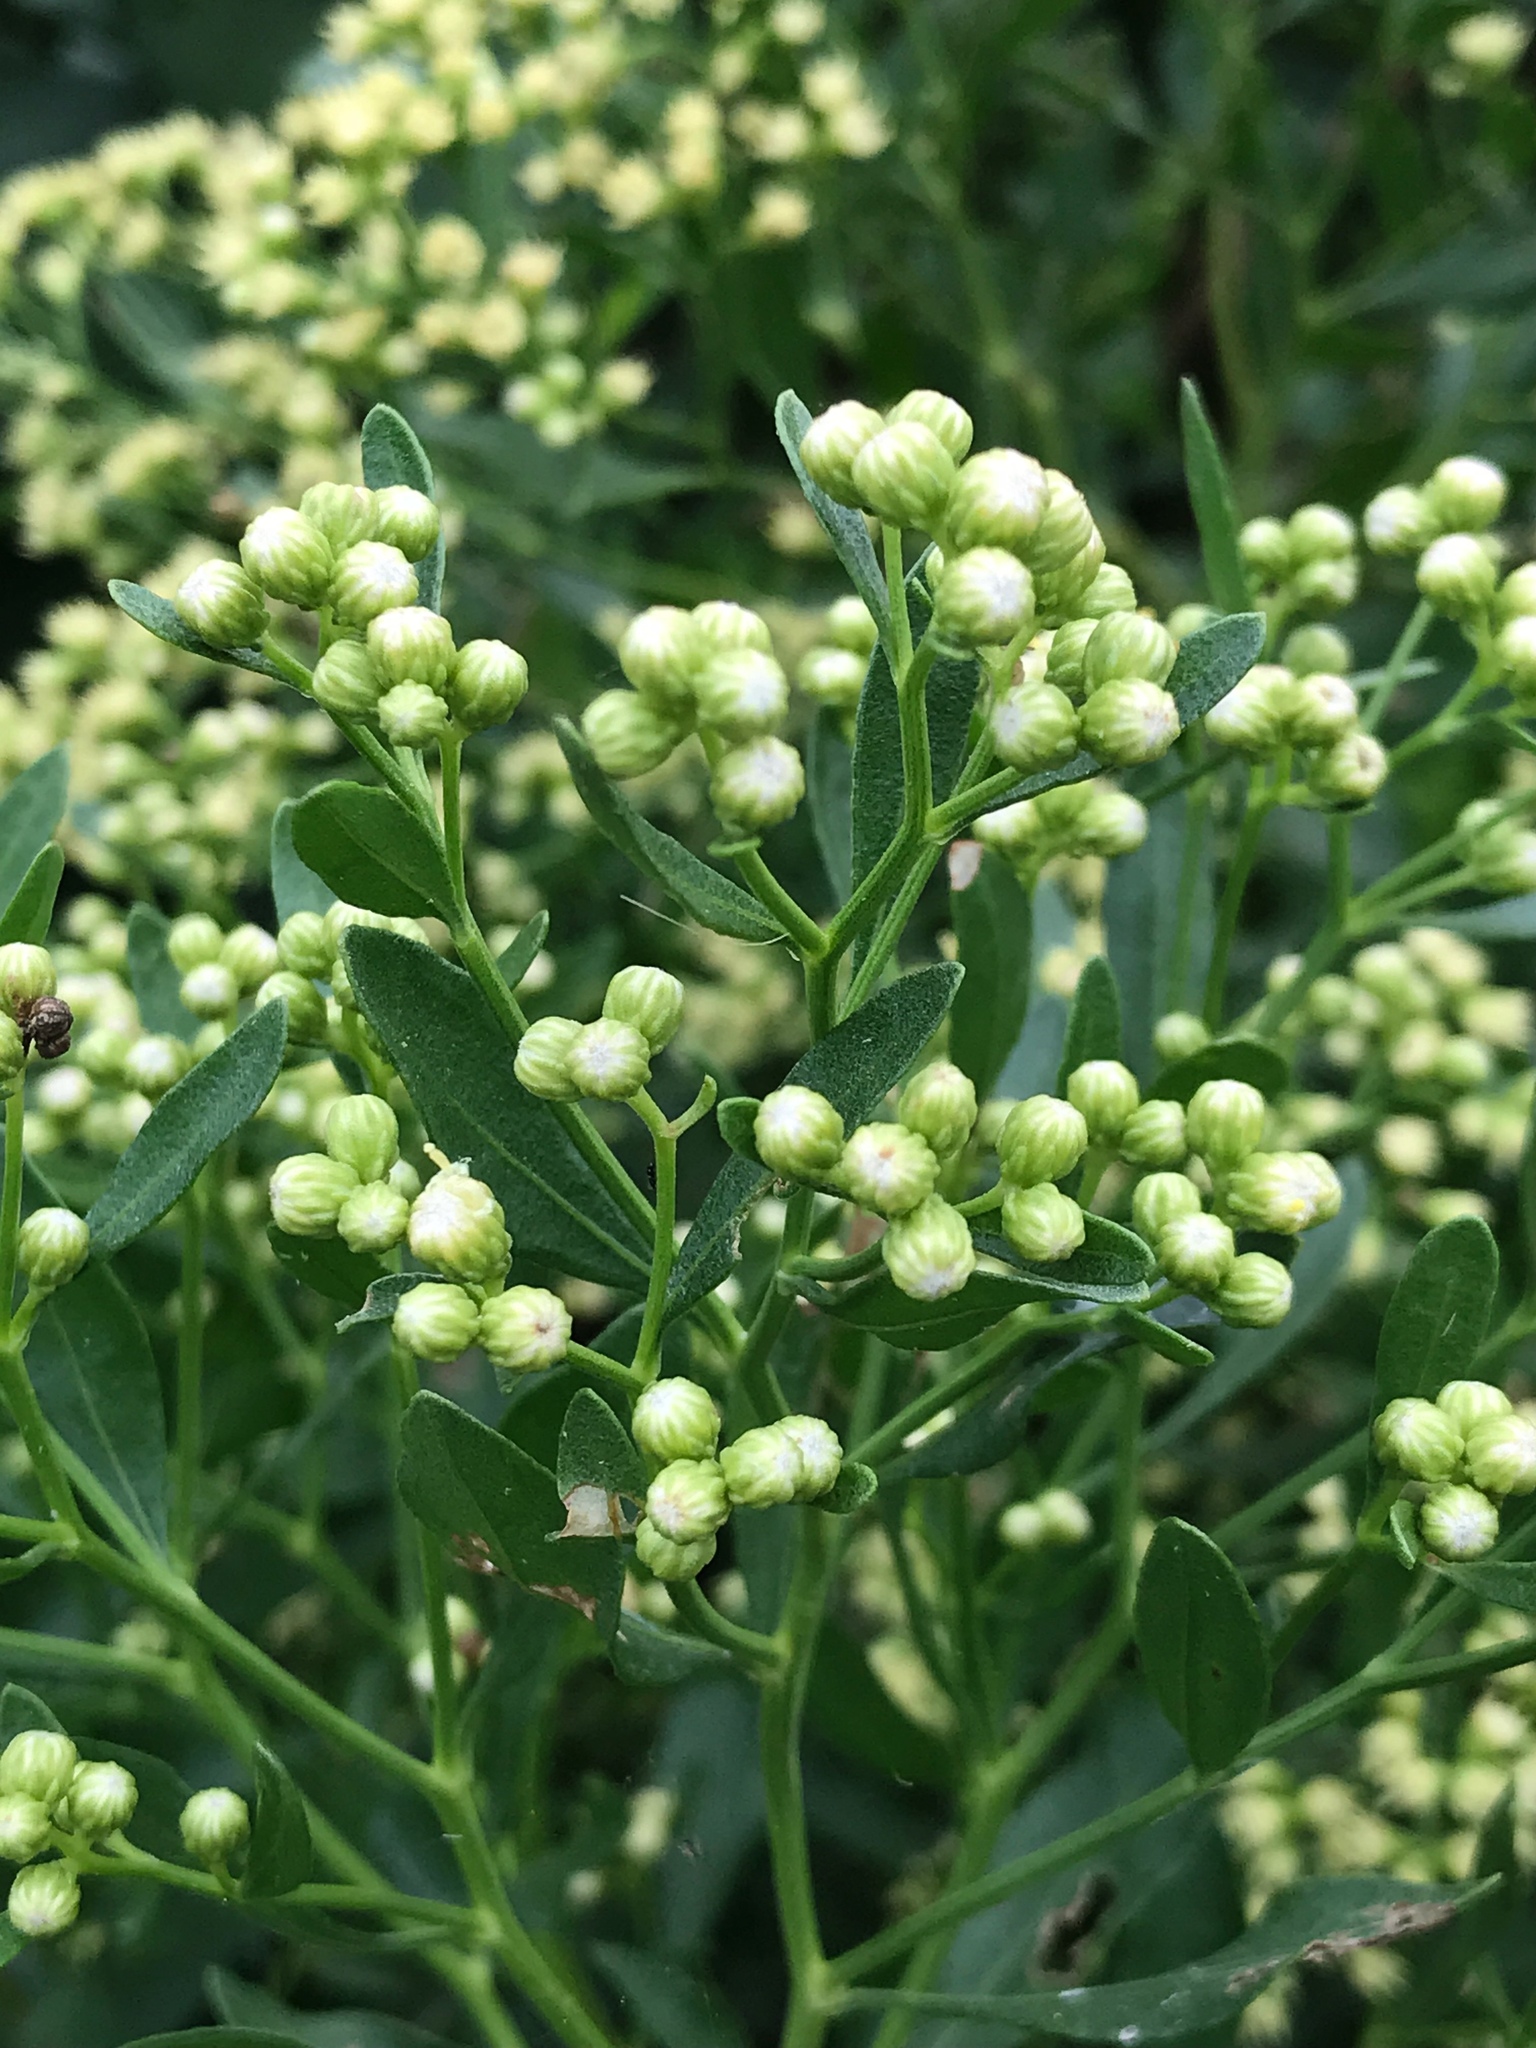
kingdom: Plantae
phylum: Tracheophyta
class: Magnoliopsida
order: Asterales
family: Asteraceae
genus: Baccharis
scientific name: Baccharis halimifolia
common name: Eastern baccharis
